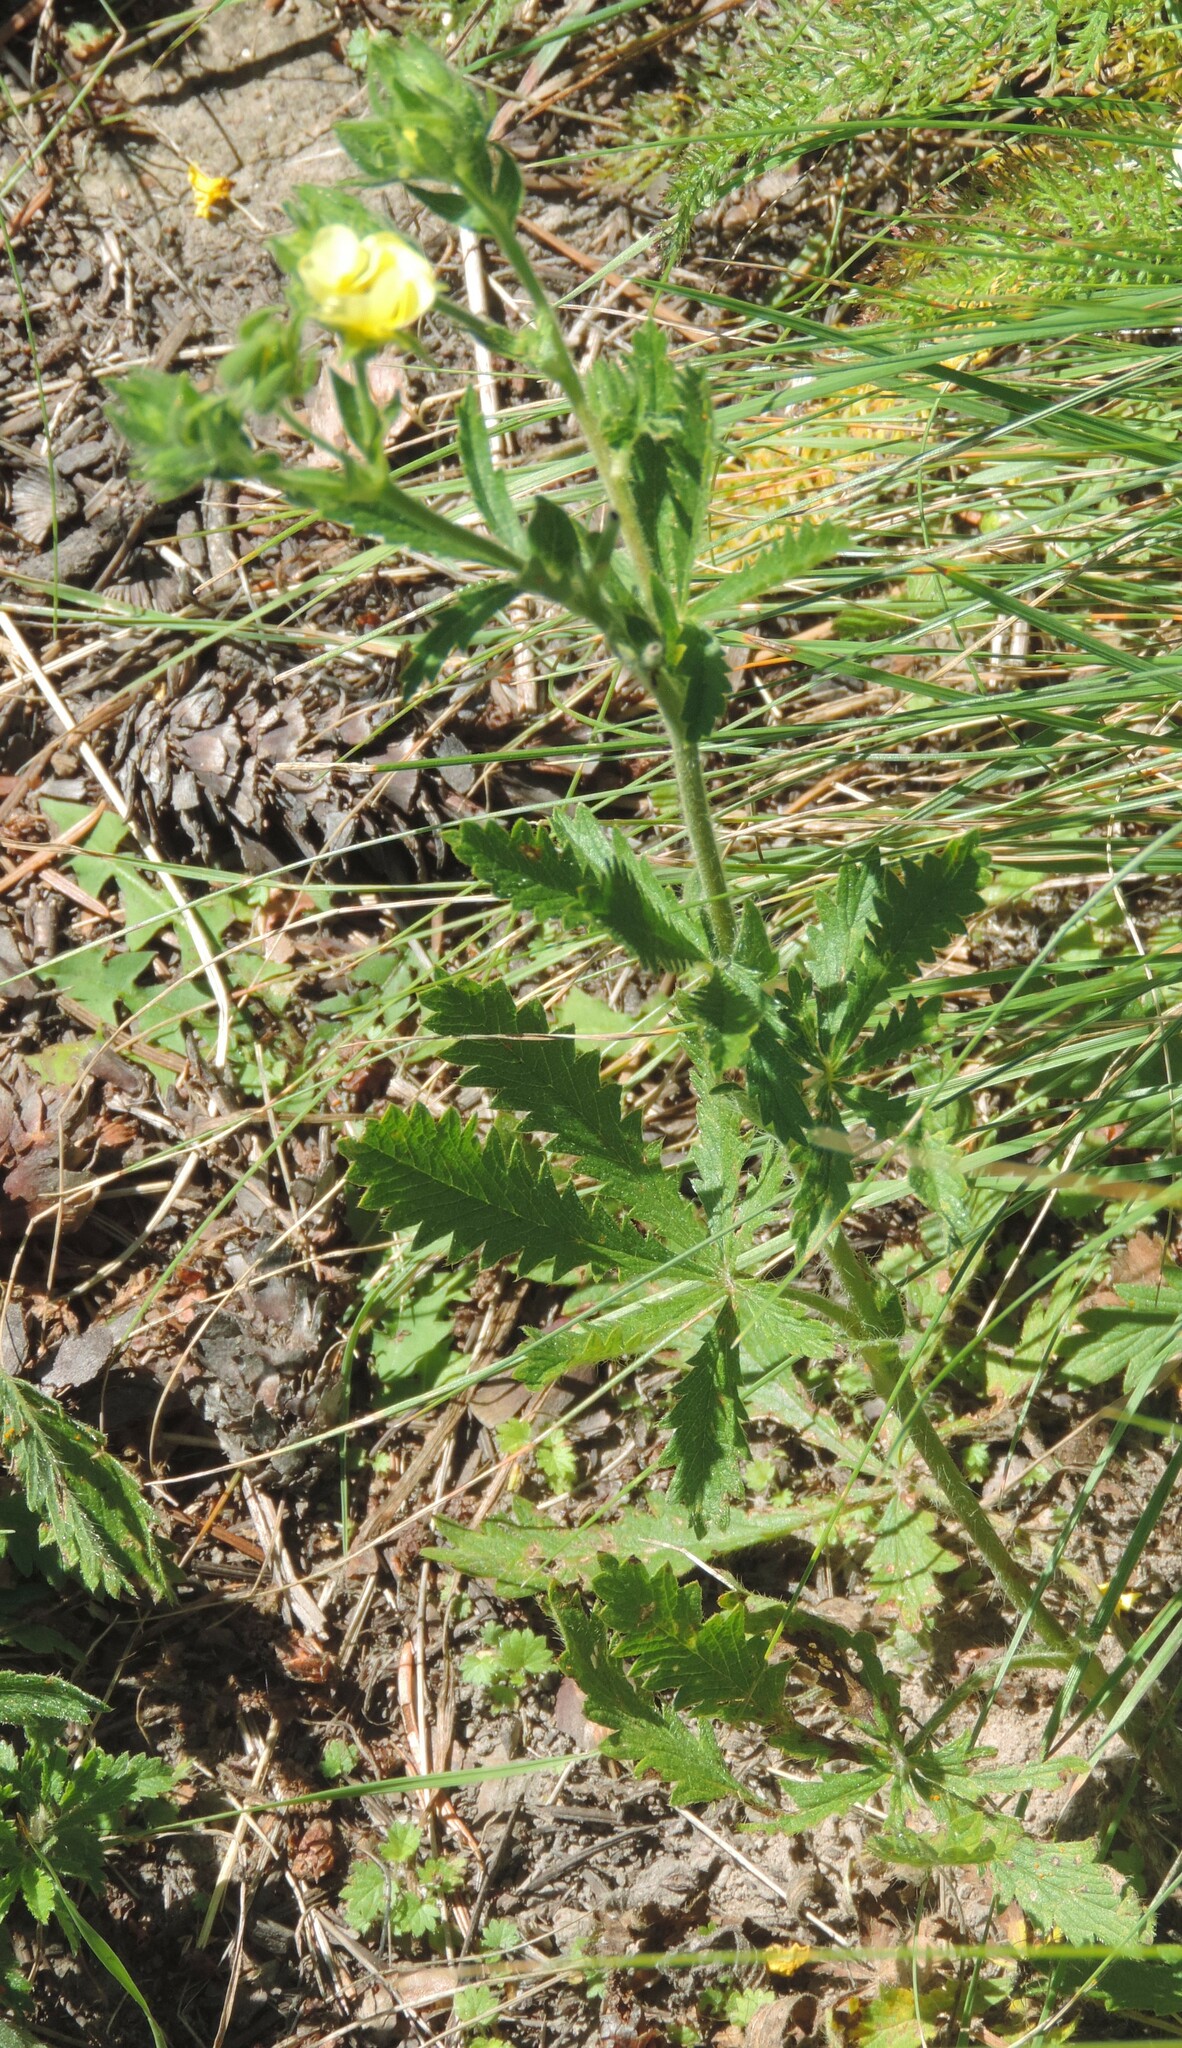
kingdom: Plantae
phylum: Tracheophyta
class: Magnoliopsida
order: Rosales
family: Rosaceae
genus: Potentilla
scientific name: Potentilla recta
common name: Sulphur cinquefoil
